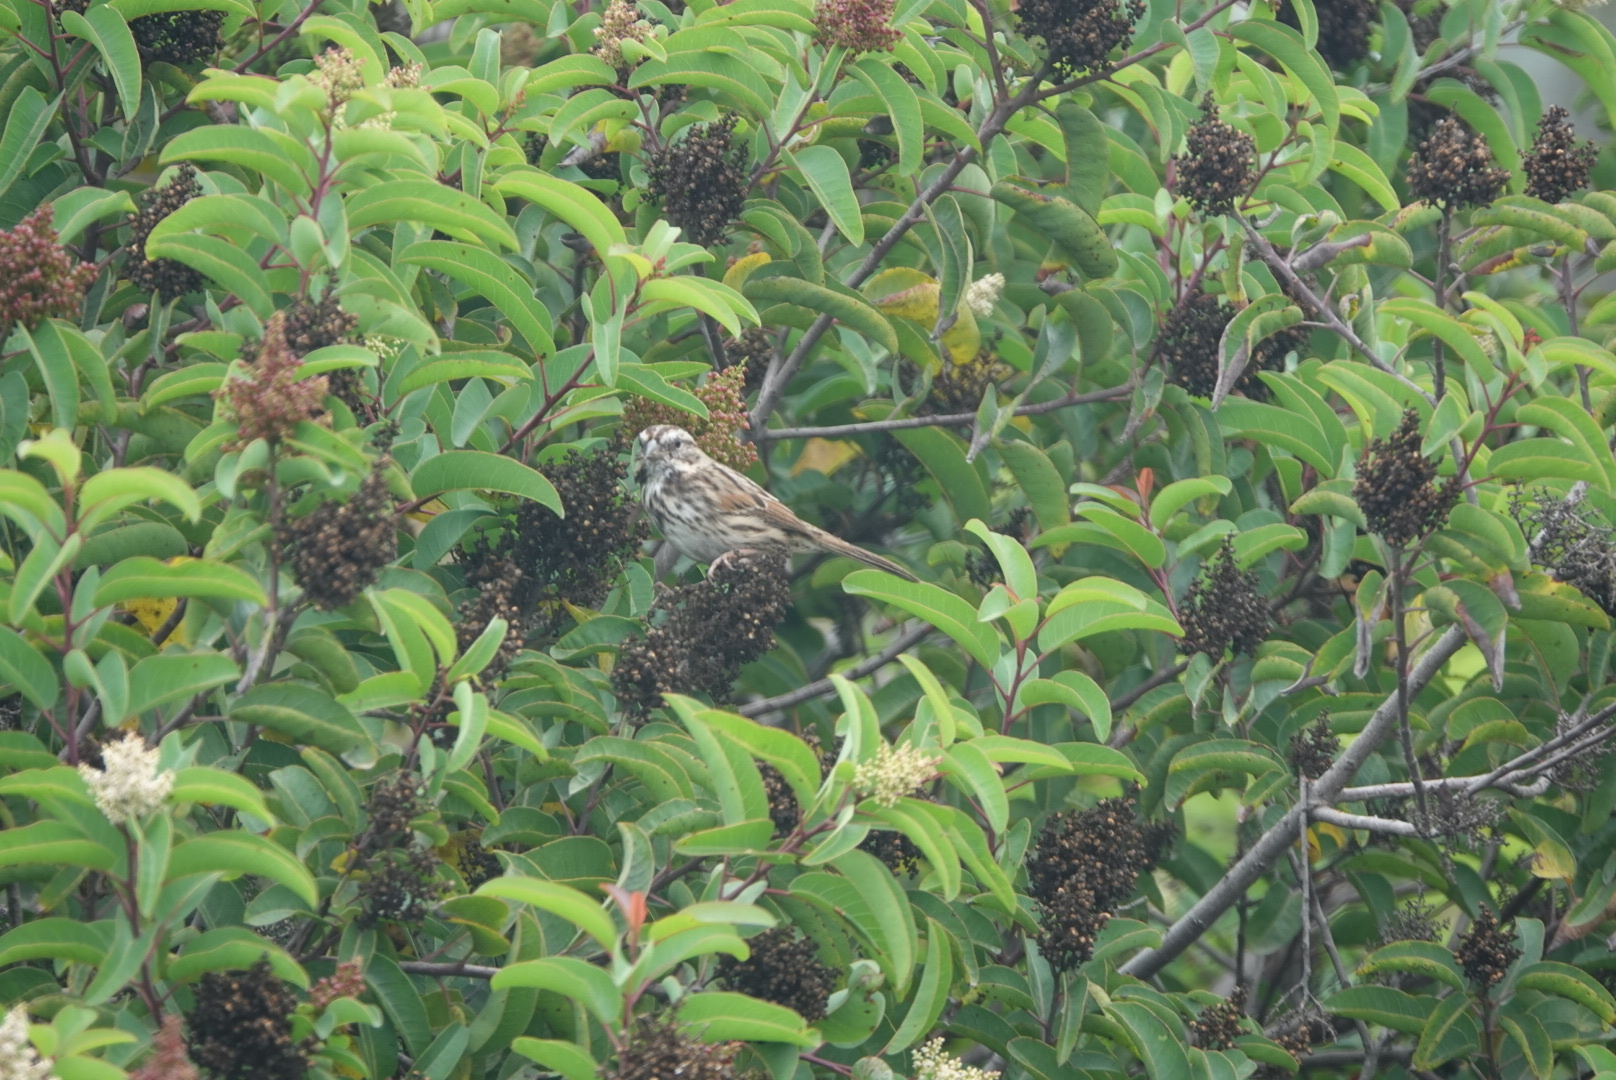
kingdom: Animalia
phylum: Chordata
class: Aves
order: Passeriformes
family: Passerellidae
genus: Melospiza
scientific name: Melospiza melodia
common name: Song sparrow
